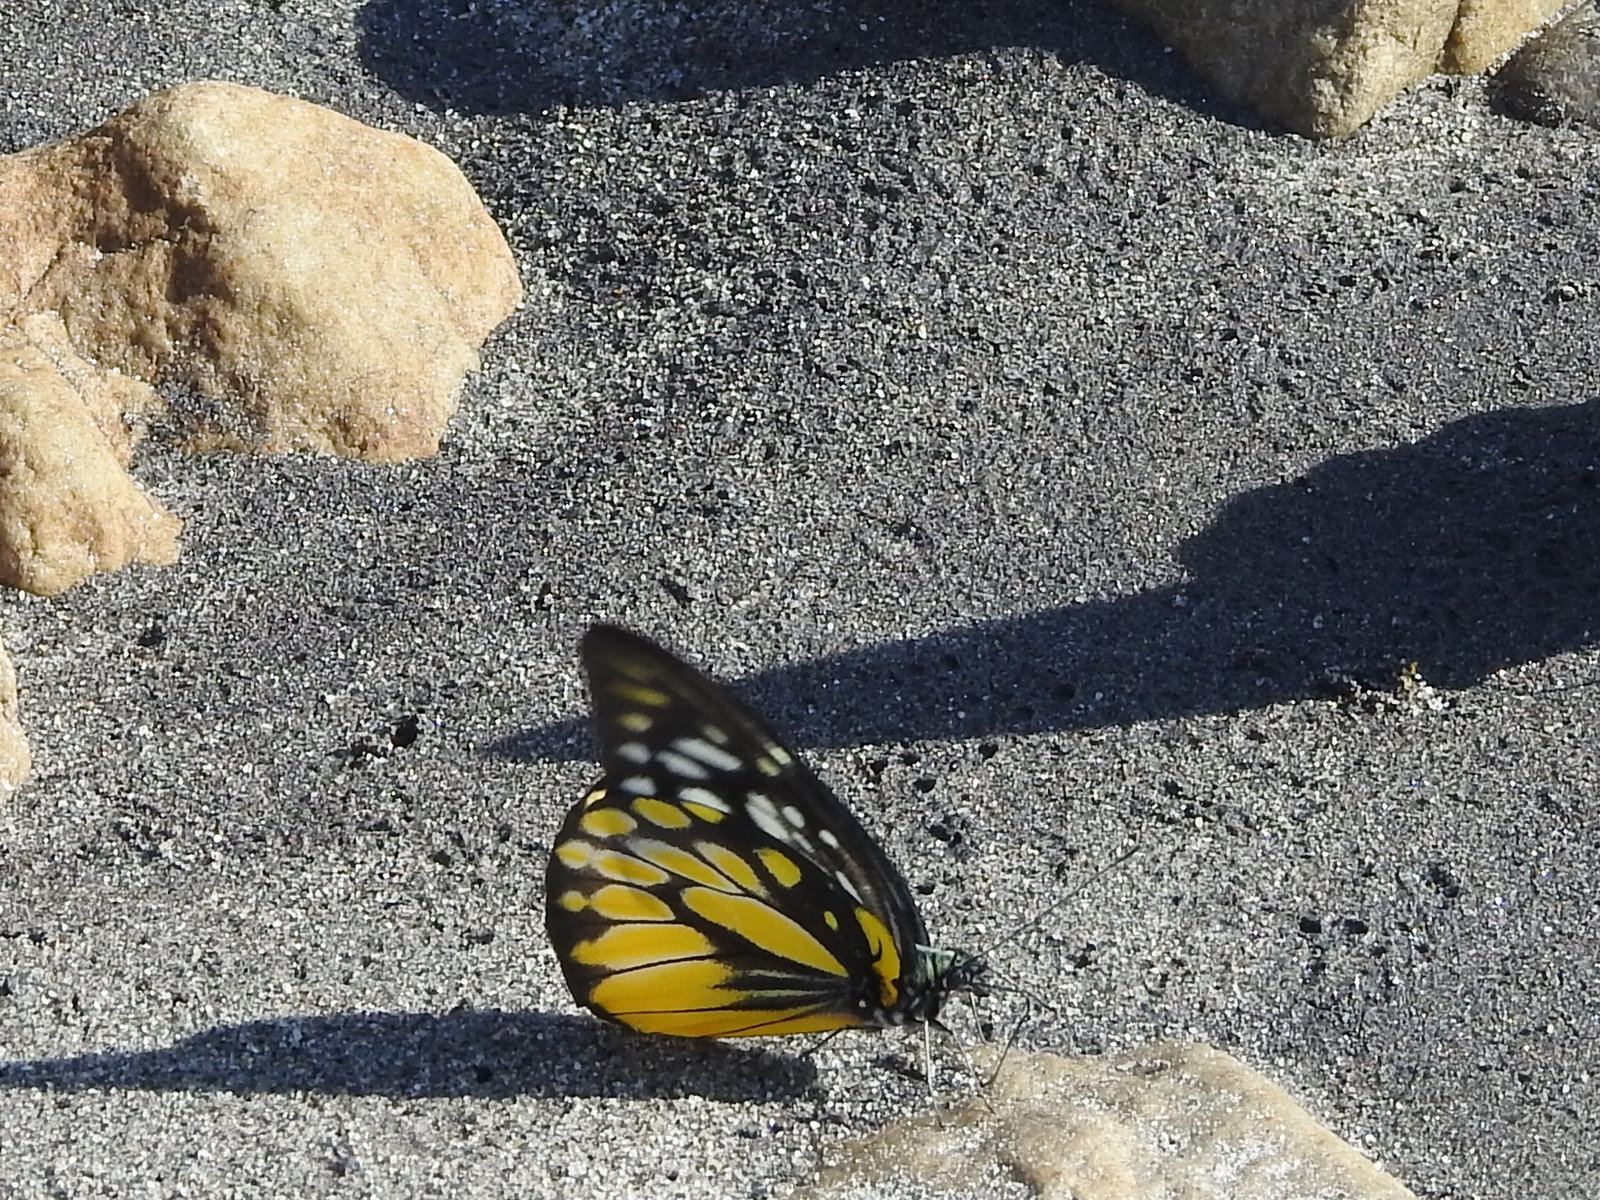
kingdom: Animalia
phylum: Arthropoda
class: Insecta
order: Lepidoptera
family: Pieridae
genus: Prioneris
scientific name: Prioneris thestylis
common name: Spotted sawtooth
